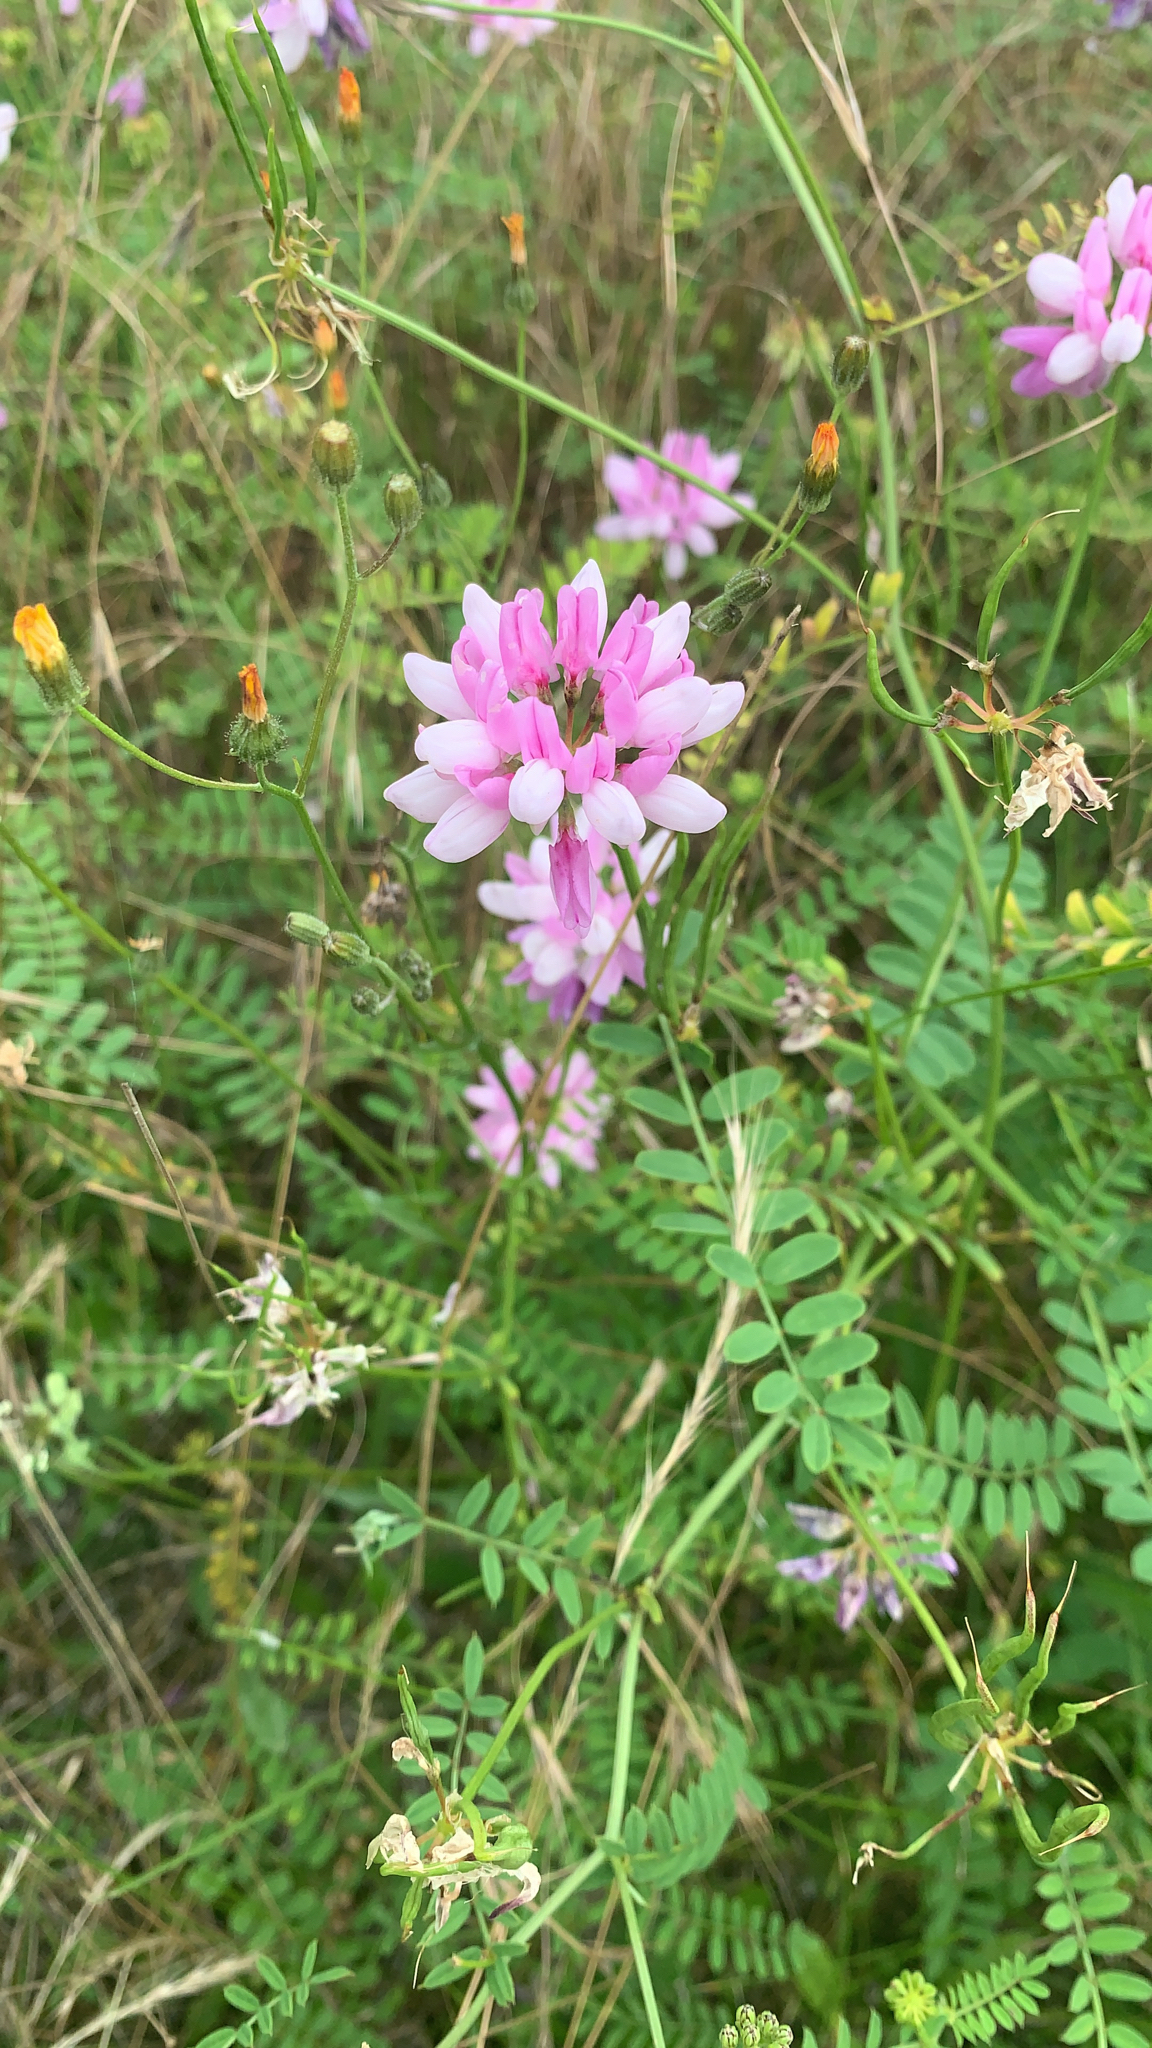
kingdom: Plantae
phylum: Tracheophyta
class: Magnoliopsida
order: Fabales
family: Fabaceae
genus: Coronilla
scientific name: Coronilla varia
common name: Crownvetch
